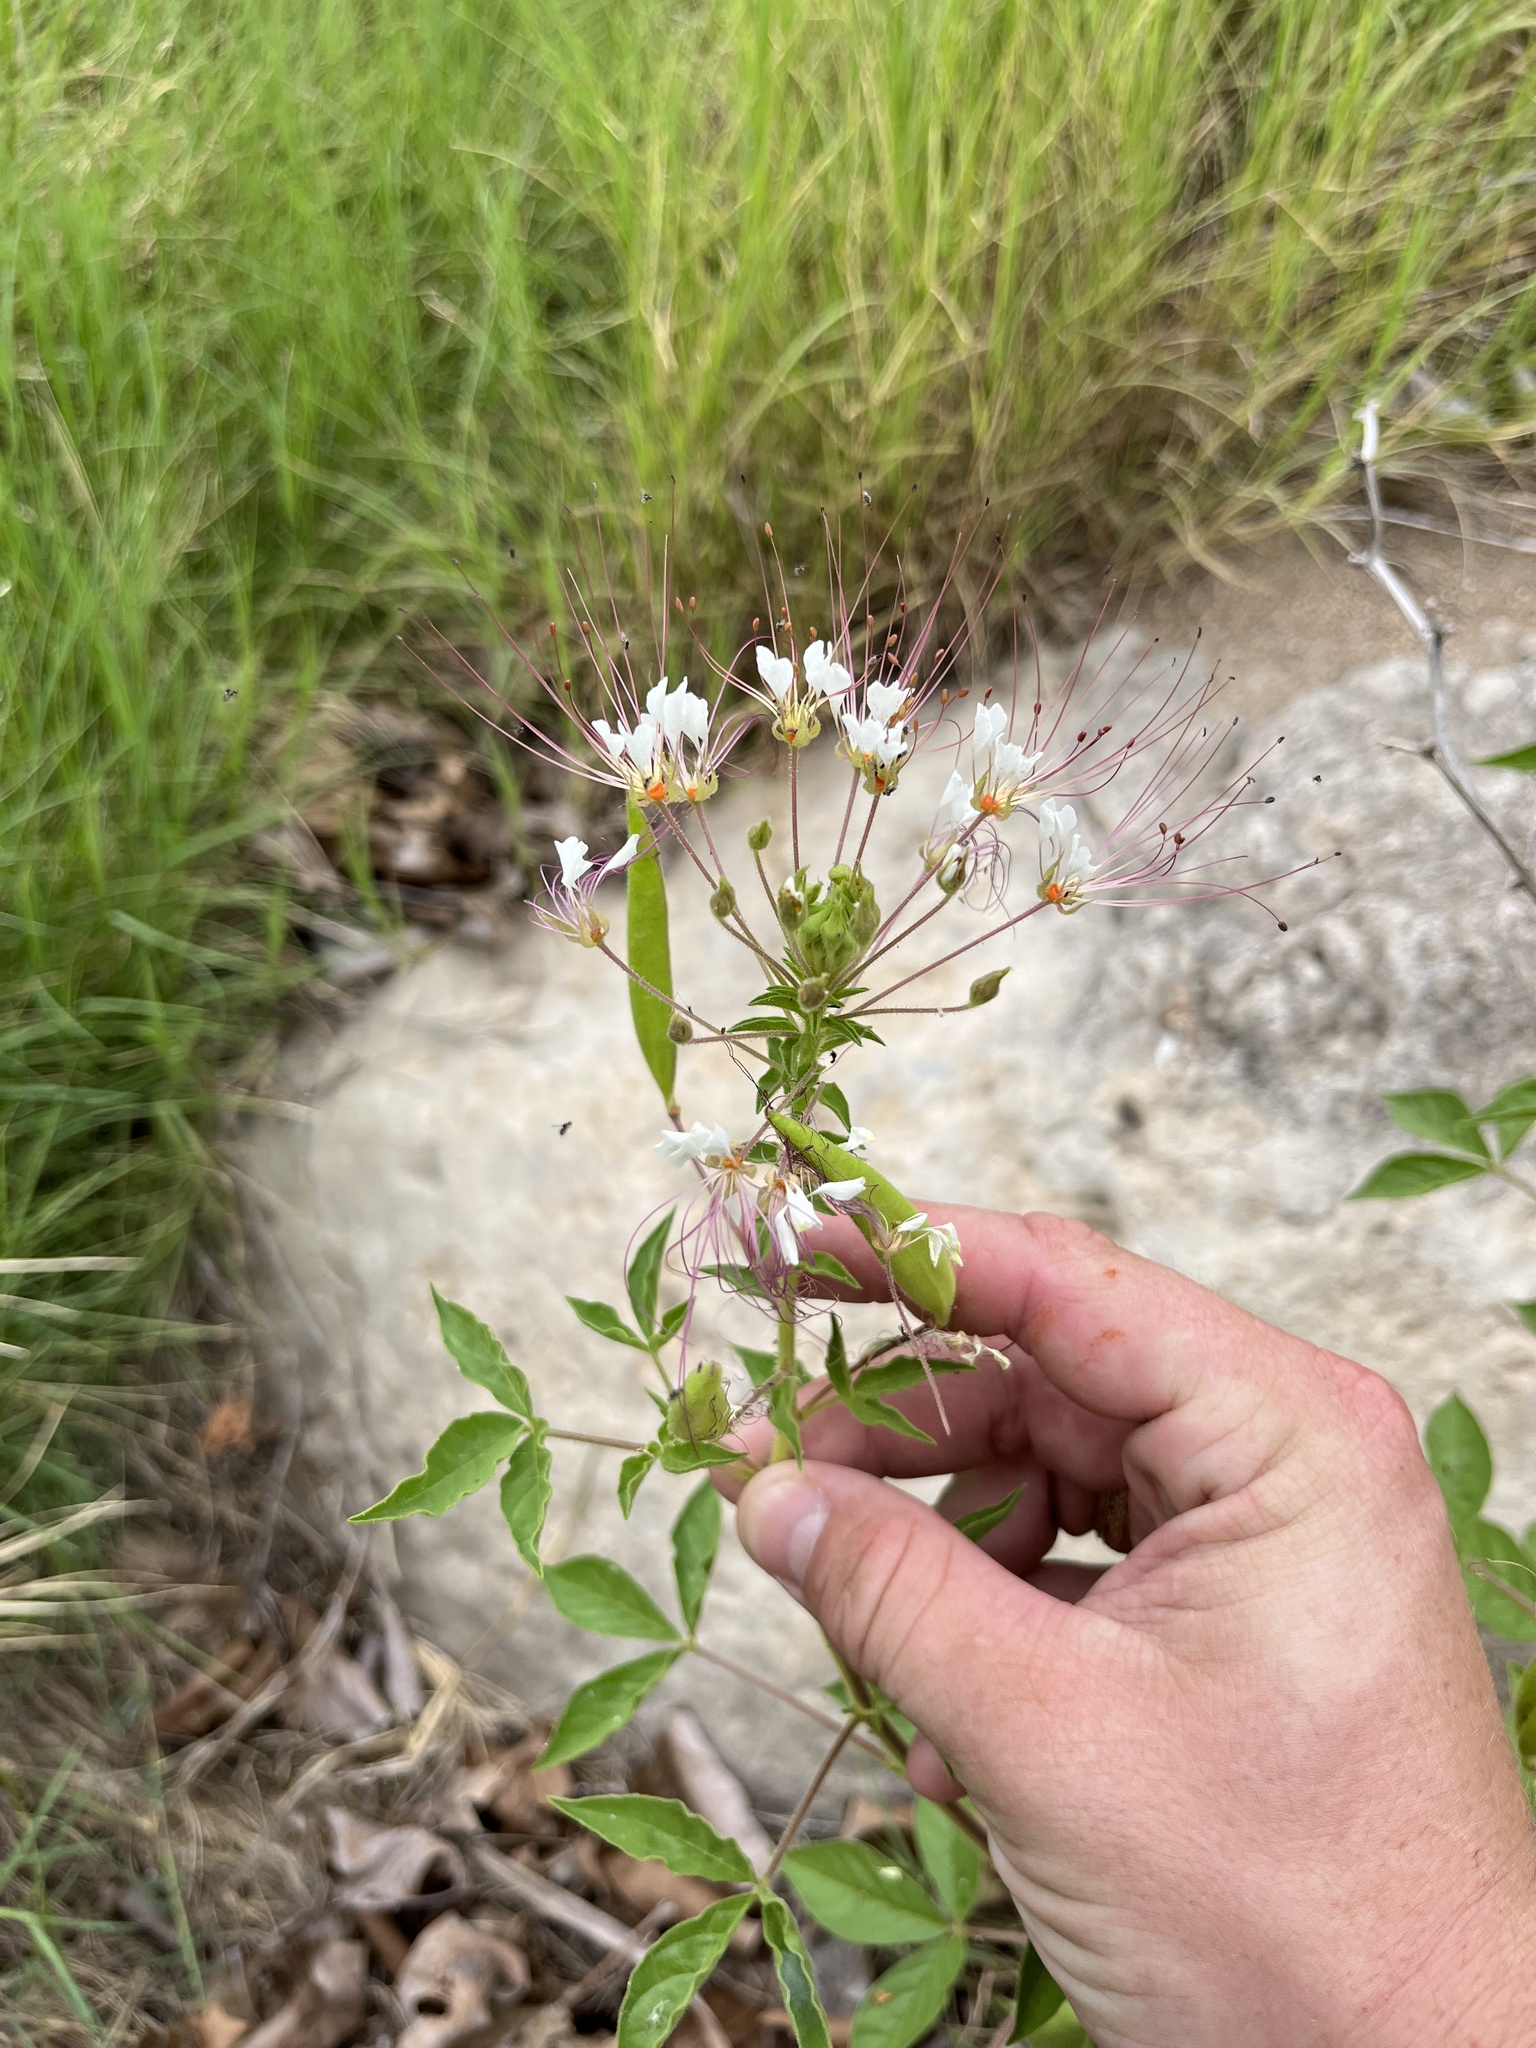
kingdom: Plantae
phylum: Tracheophyta
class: Magnoliopsida
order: Brassicales
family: Cleomaceae
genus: Polanisia
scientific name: Polanisia dodecandra
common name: Clammyweed
